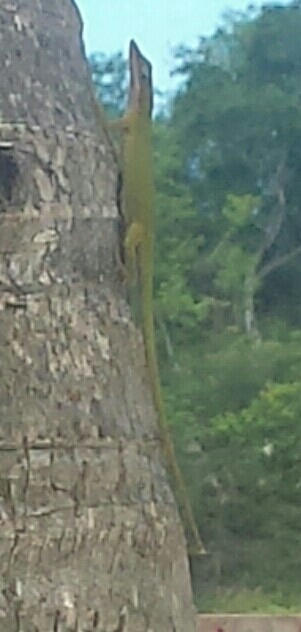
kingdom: Animalia
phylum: Chordata
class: Squamata
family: Dactyloidae
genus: Anolis
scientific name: Anolis porcatus
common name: Cuban green anole
